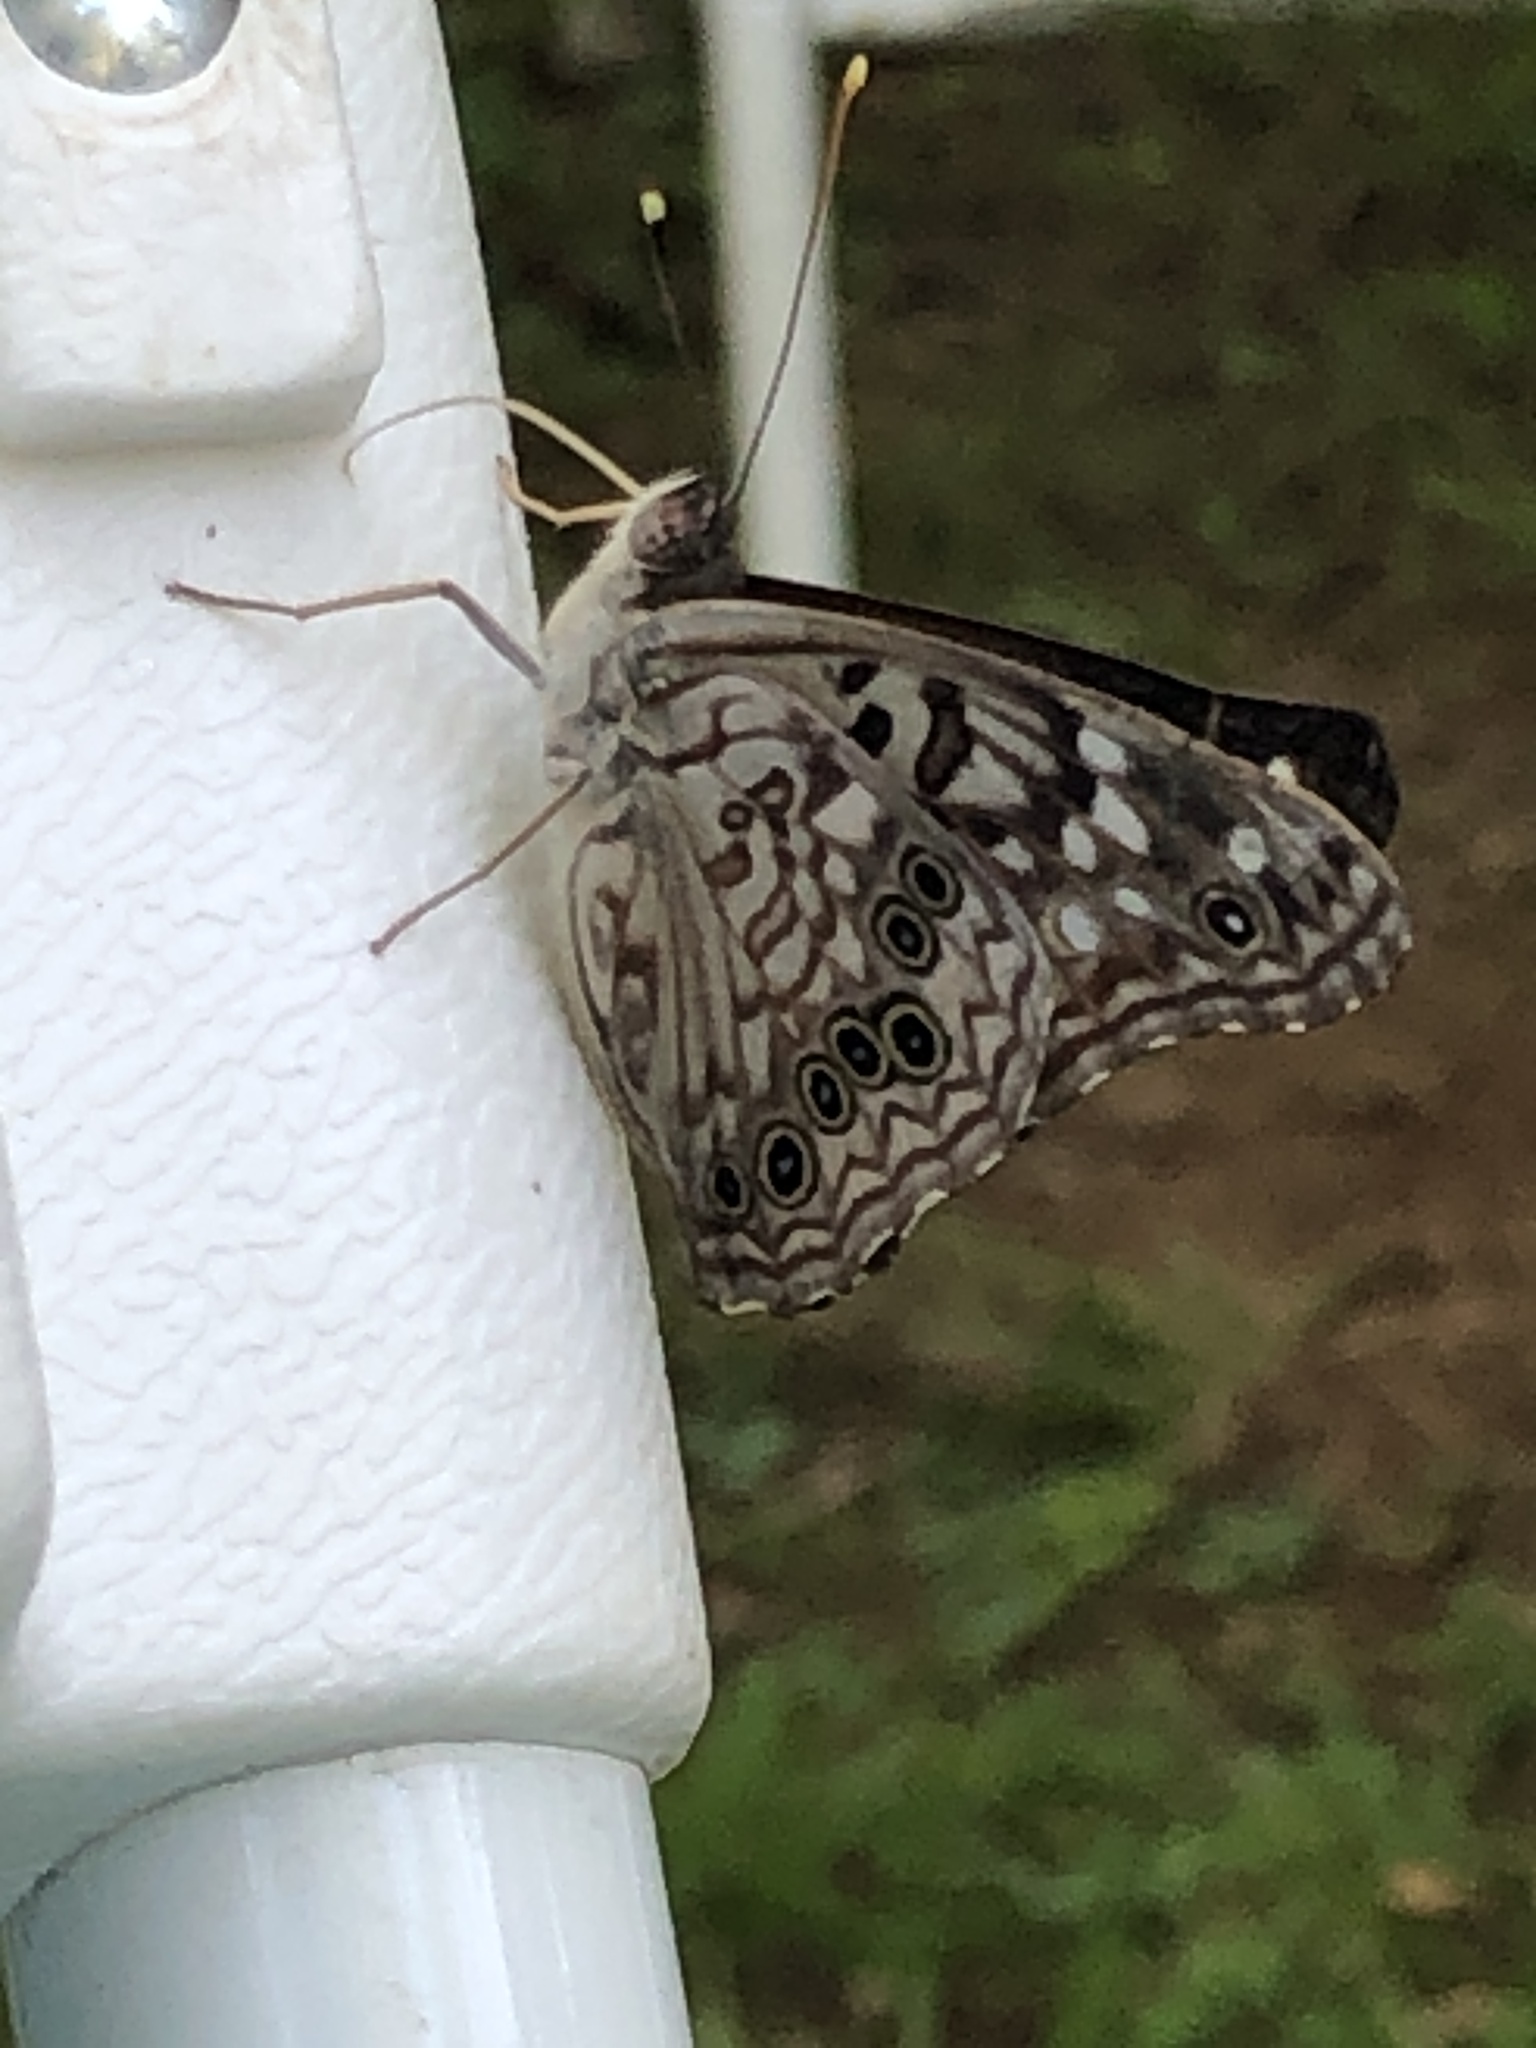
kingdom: Animalia
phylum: Arthropoda
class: Insecta
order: Lepidoptera
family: Nymphalidae
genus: Asterocampa
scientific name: Asterocampa celtis
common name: Hackberry emperor
